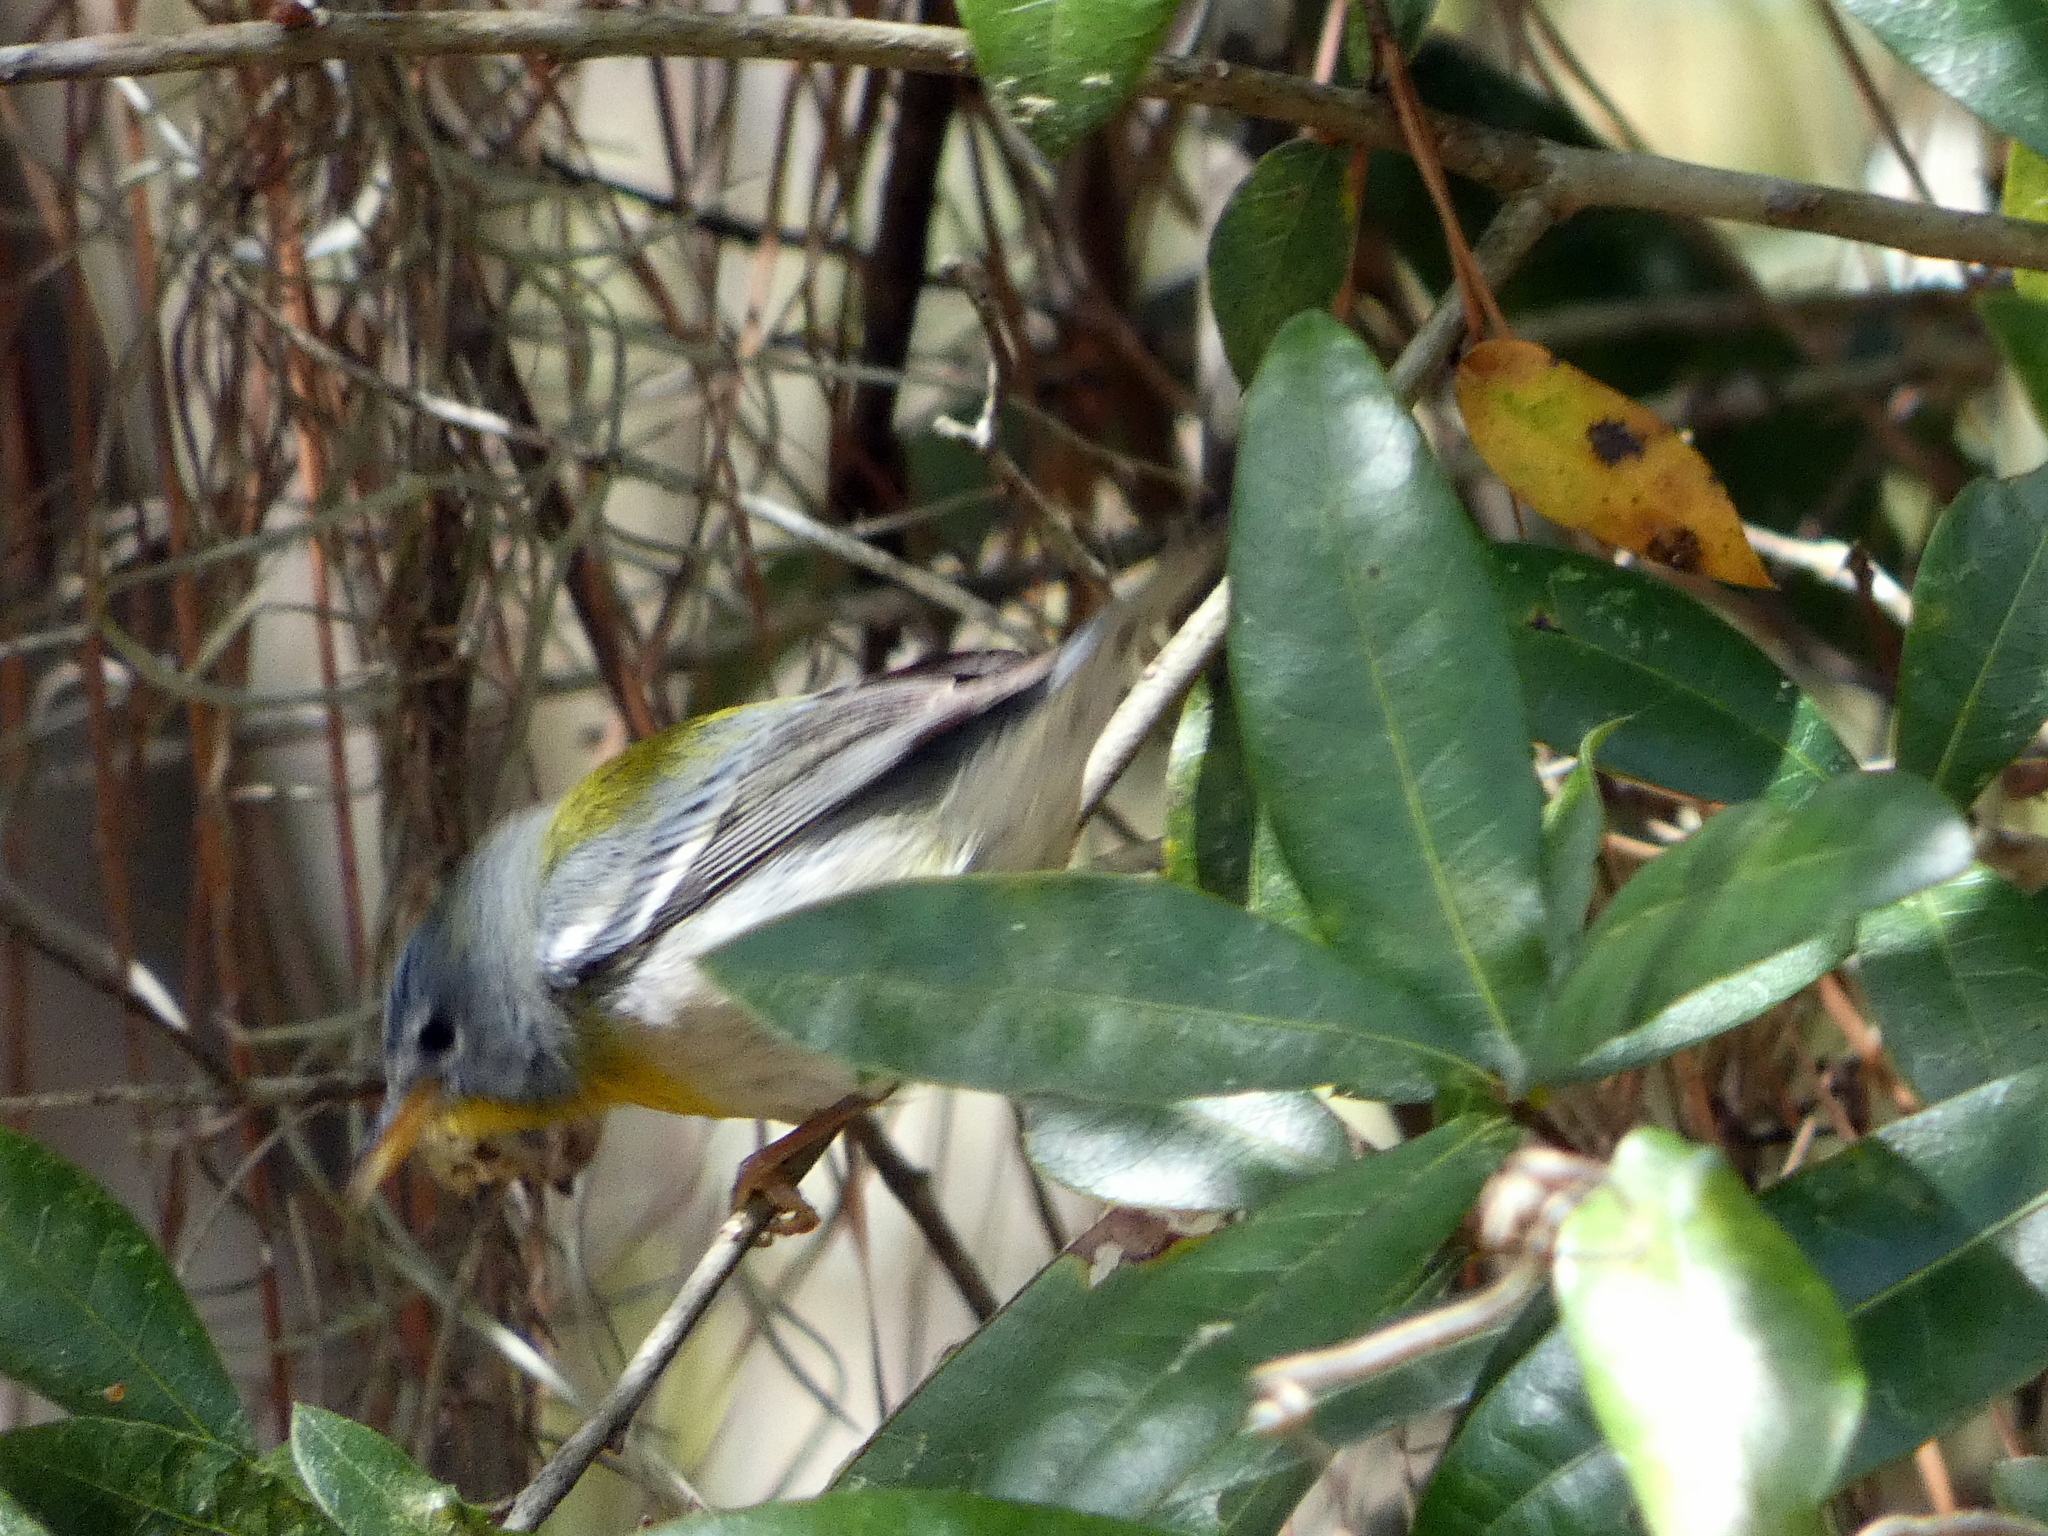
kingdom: Animalia
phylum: Chordata
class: Aves
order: Passeriformes
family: Parulidae
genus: Setophaga
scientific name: Setophaga americana
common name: Northern parula
